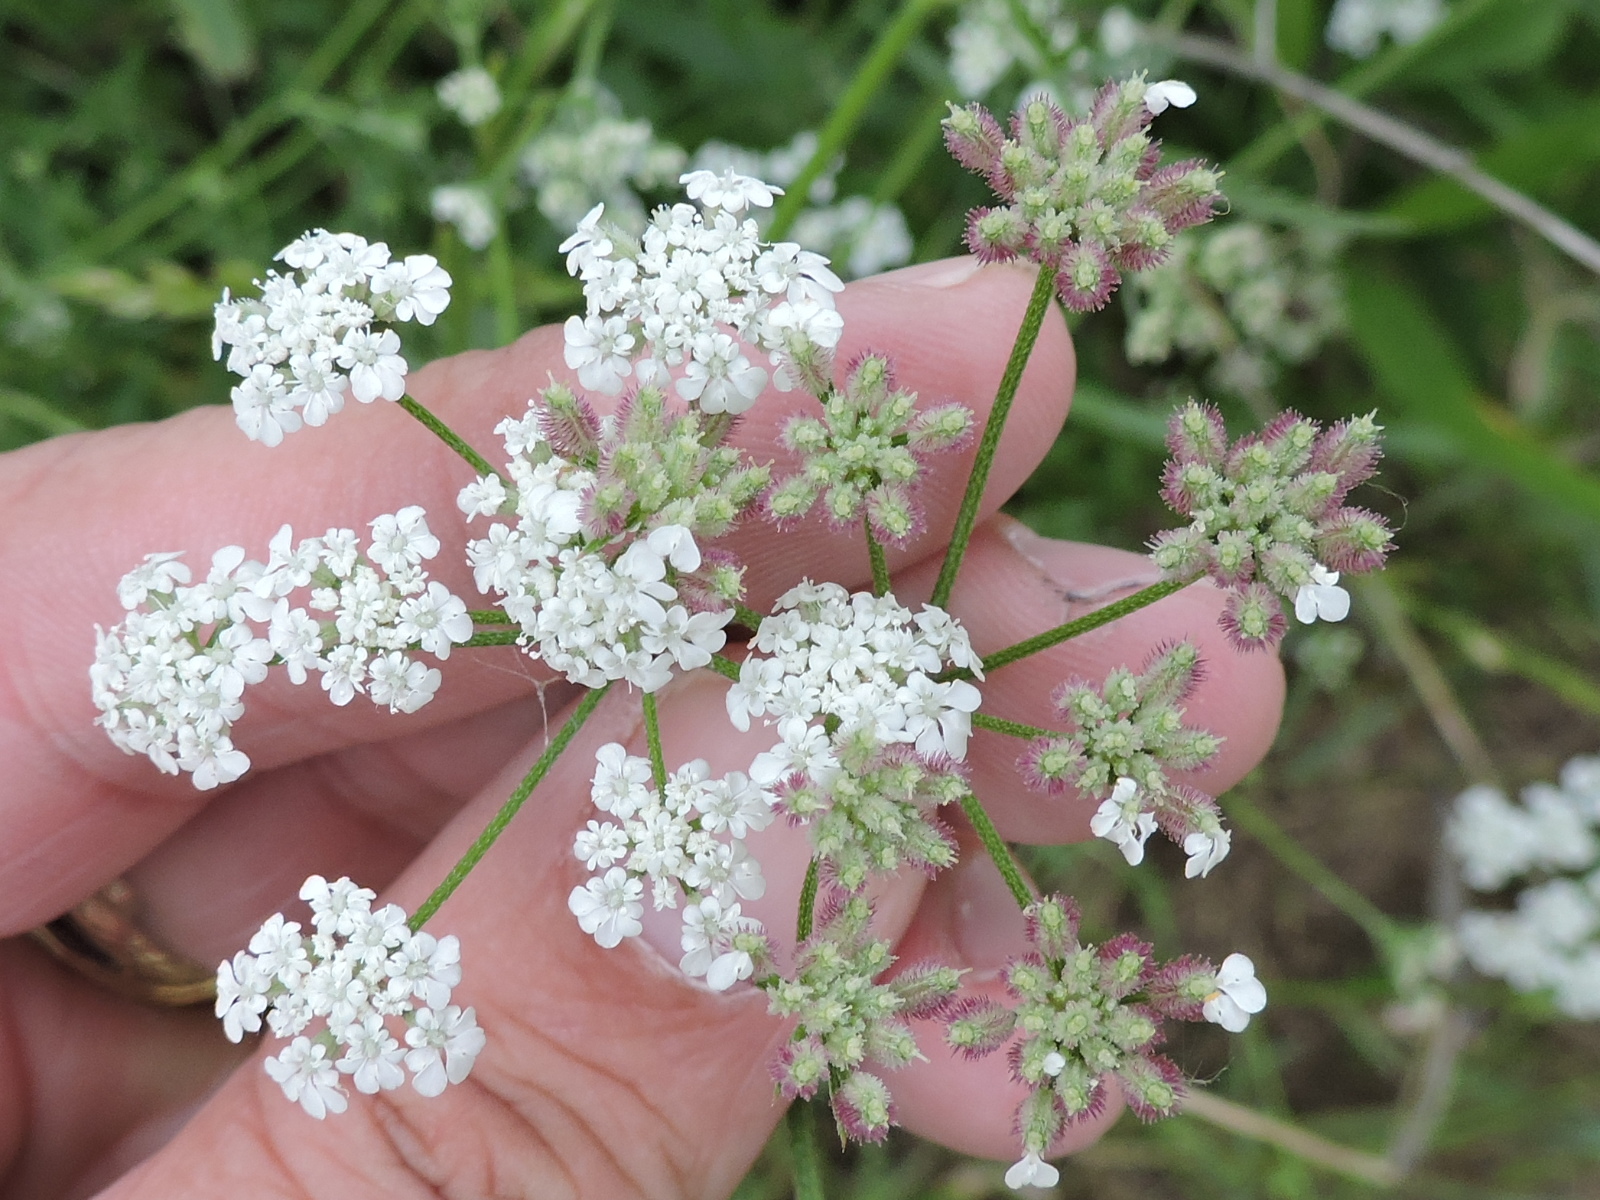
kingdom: Plantae
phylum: Tracheophyta
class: Magnoliopsida
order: Apiales
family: Apiaceae
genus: Torilis
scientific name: Torilis arvensis
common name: Spreading hedge-parsley
